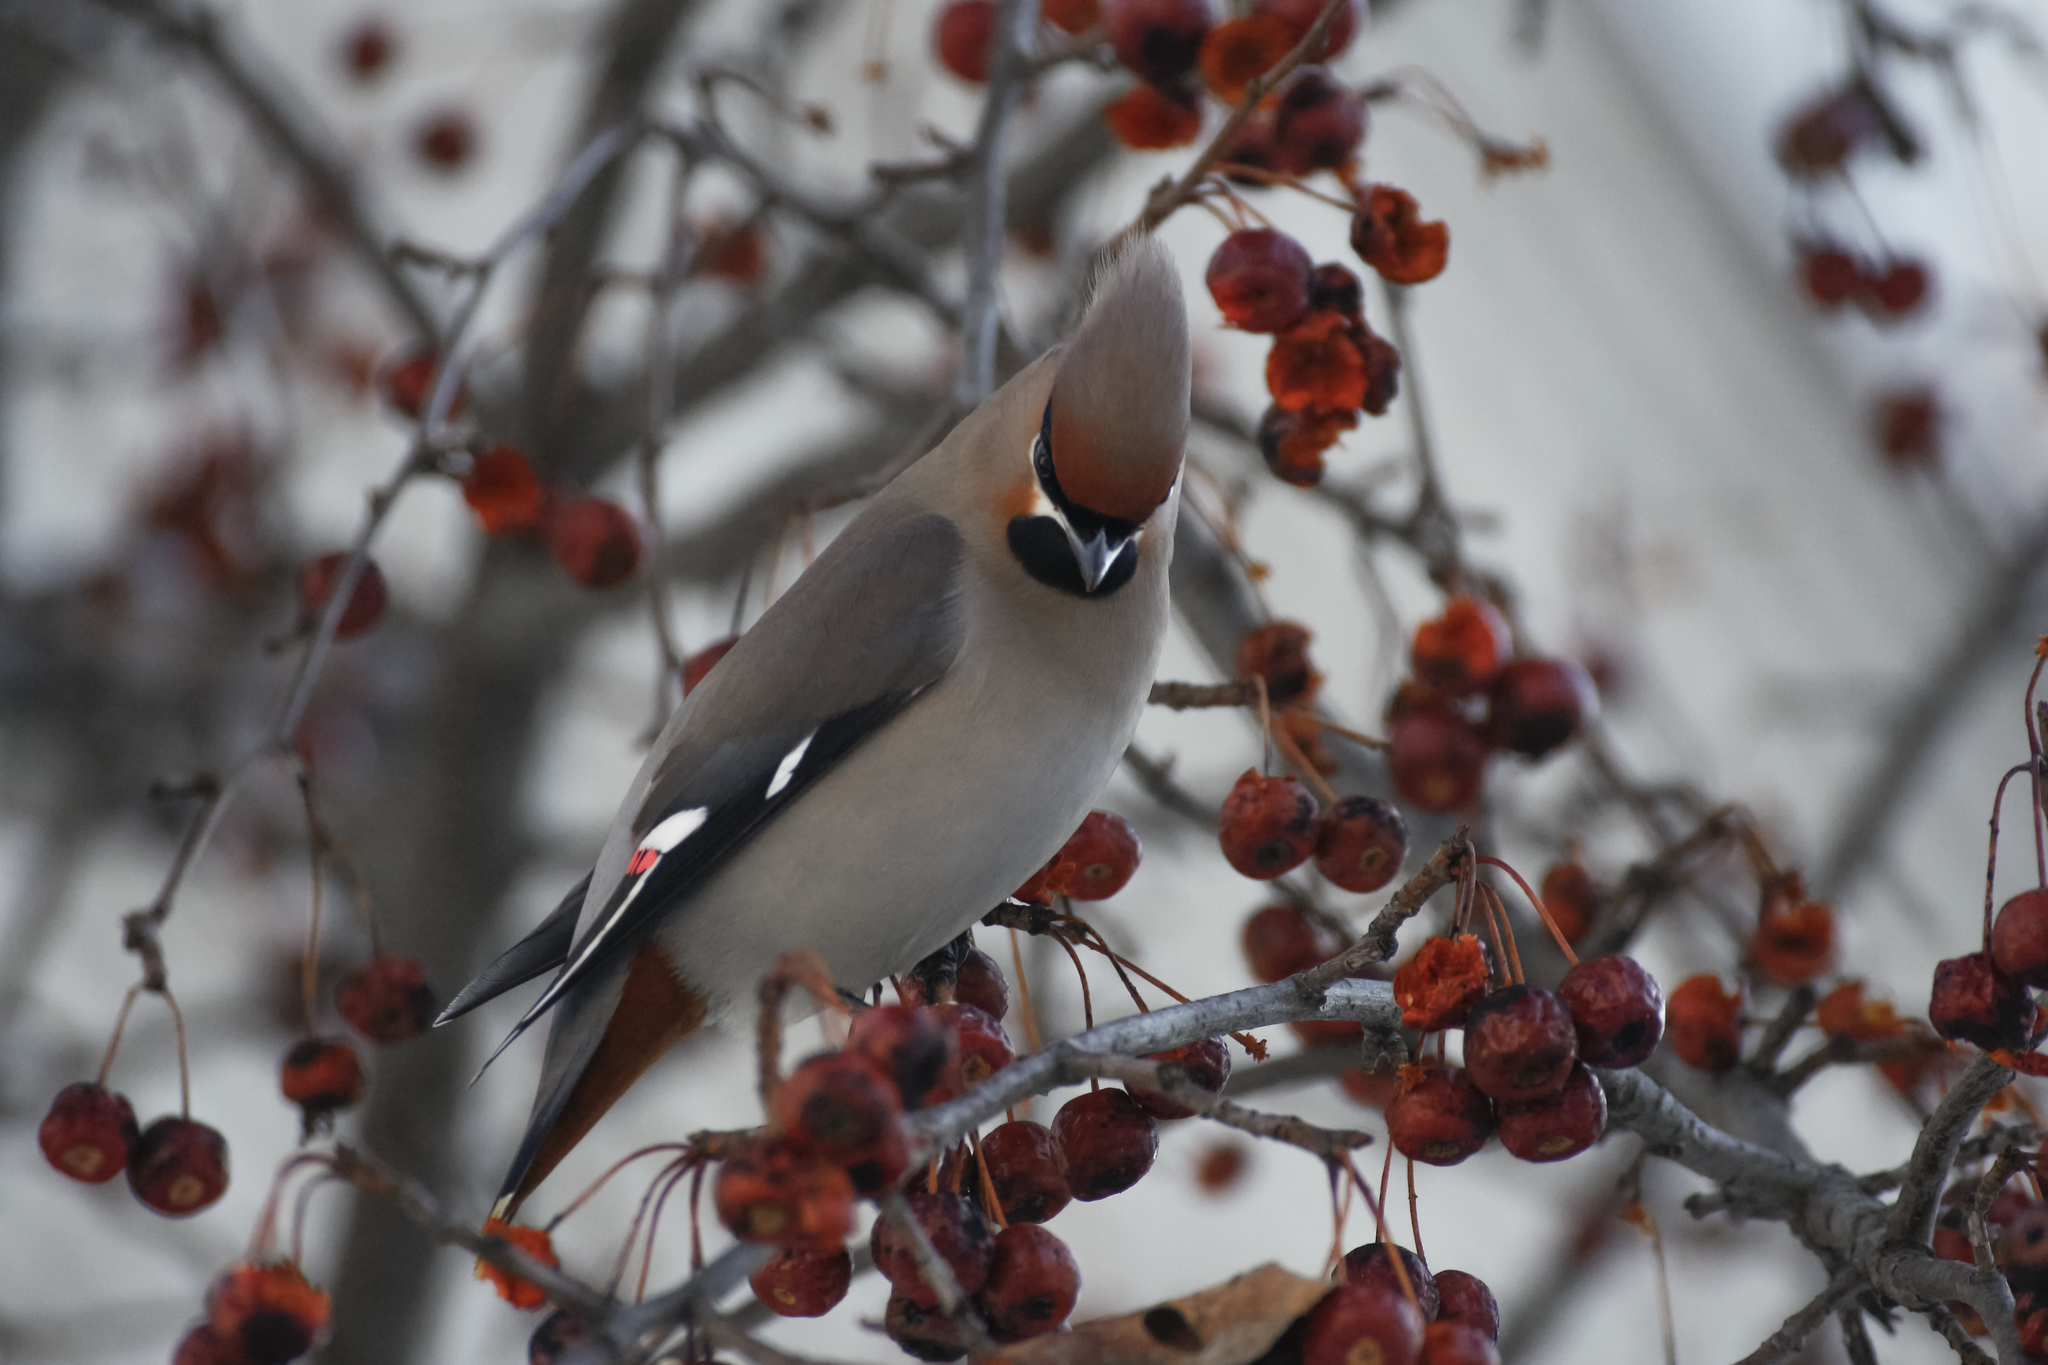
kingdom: Animalia
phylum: Chordata
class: Aves
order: Passeriformes
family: Bombycillidae
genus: Bombycilla
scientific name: Bombycilla garrulus
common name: Bohemian waxwing
